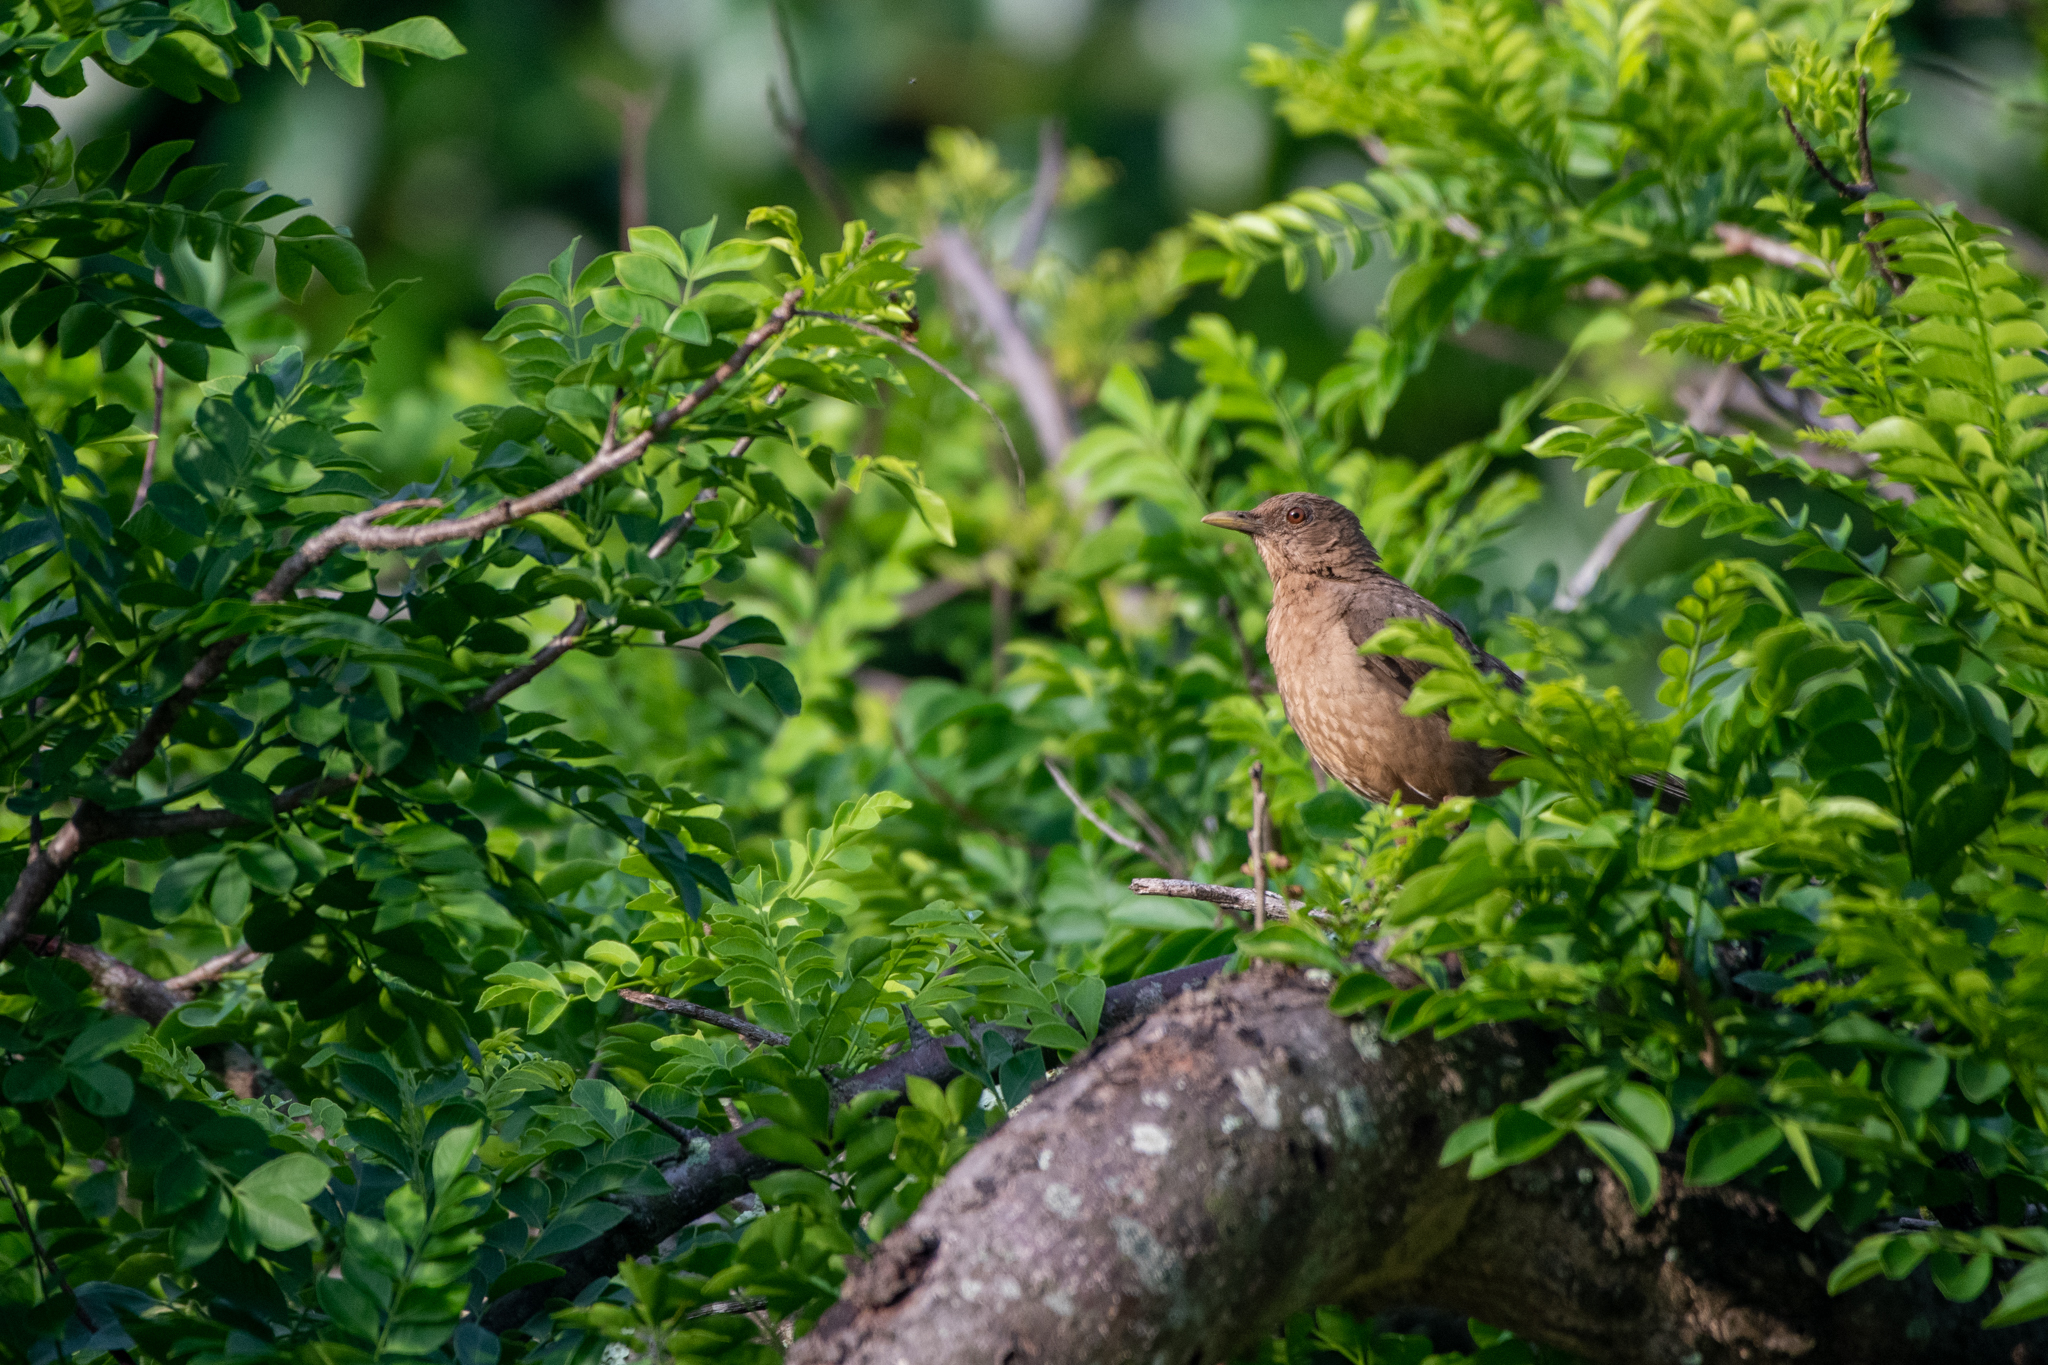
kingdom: Animalia
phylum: Chordata
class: Aves
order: Passeriformes
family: Turdidae
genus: Turdus
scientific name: Turdus grayi
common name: Clay-colored thrush
